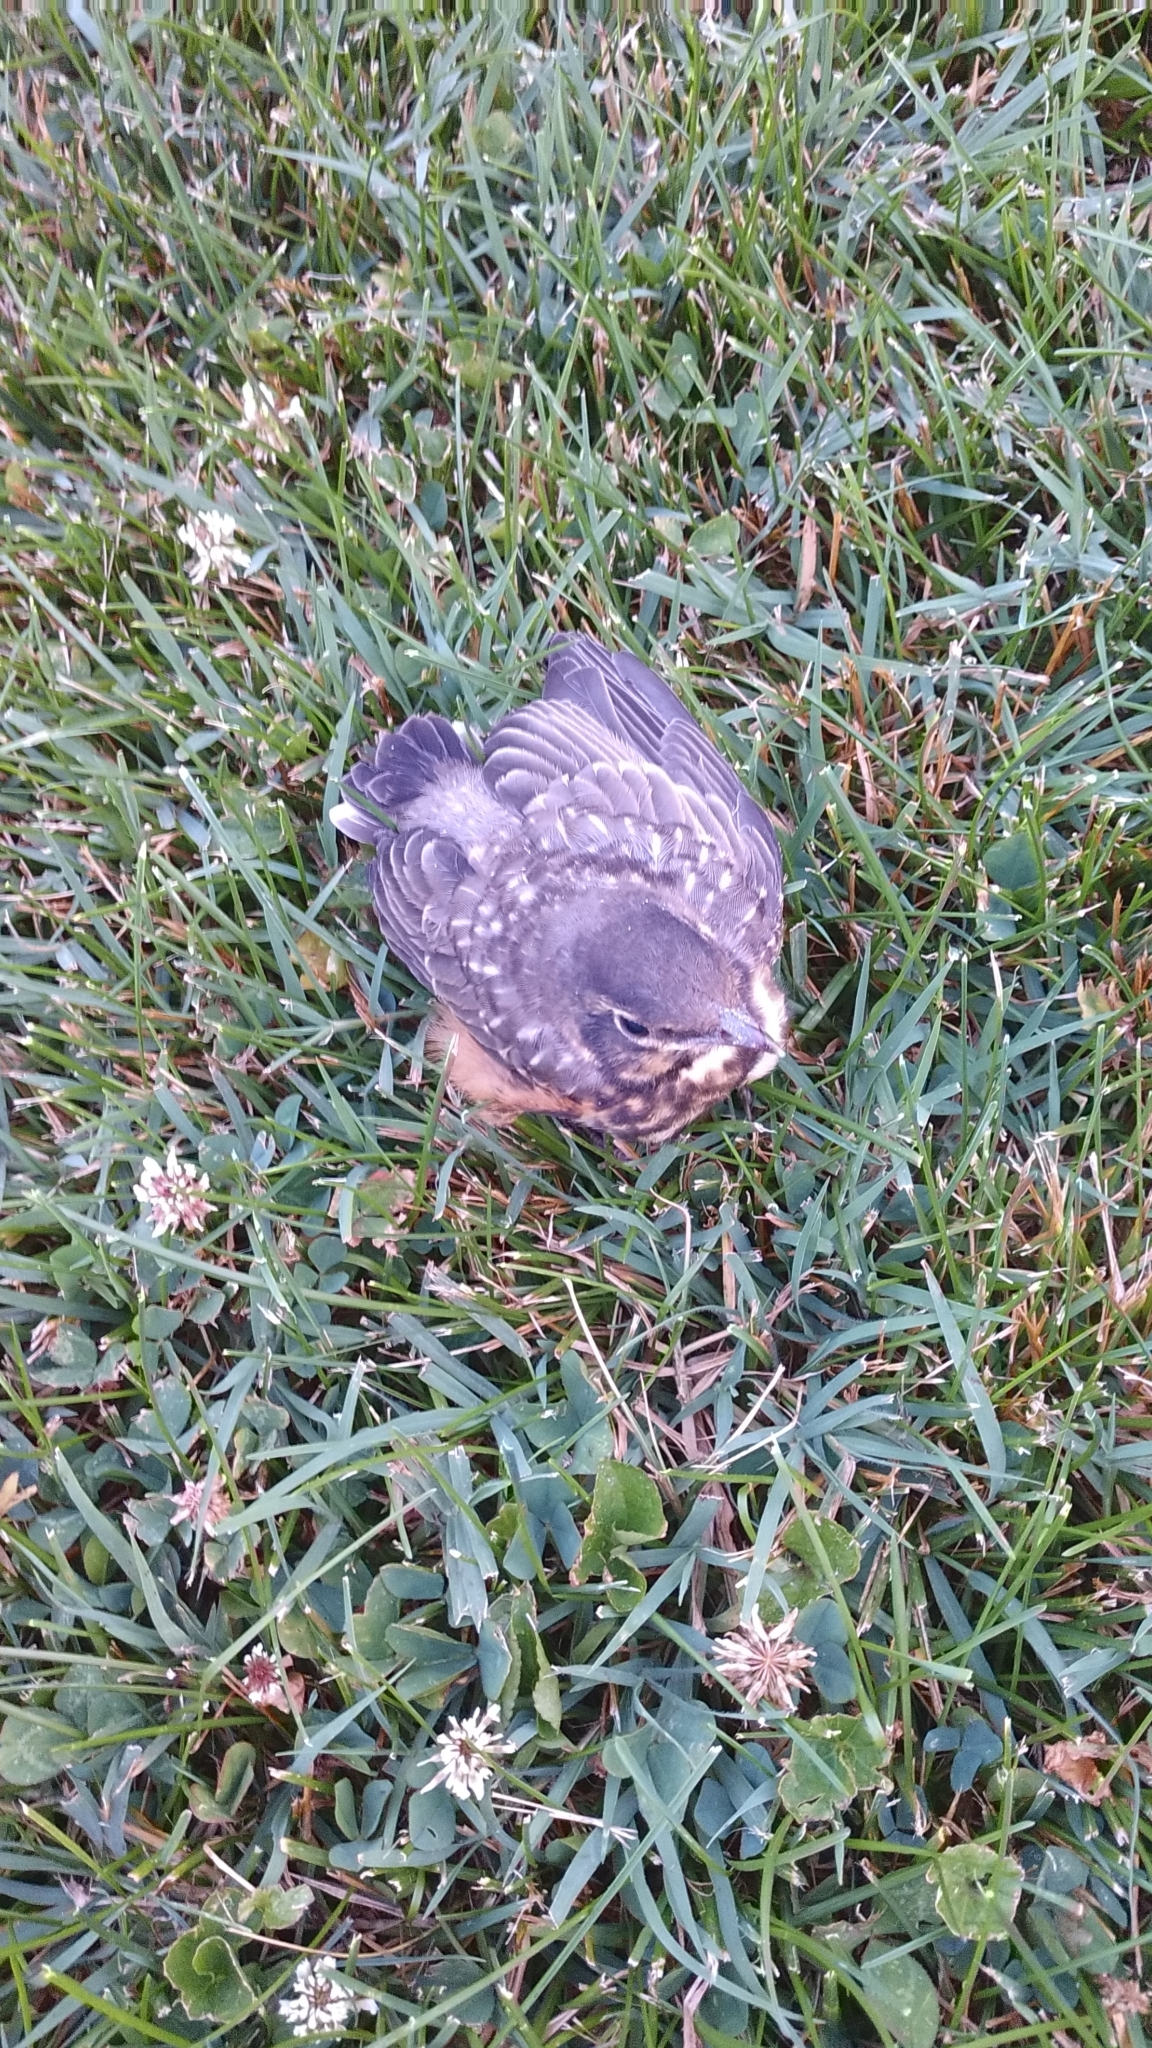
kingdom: Animalia
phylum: Chordata
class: Aves
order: Passeriformes
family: Turdidae
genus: Turdus
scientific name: Turdus migratorius
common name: American robin
